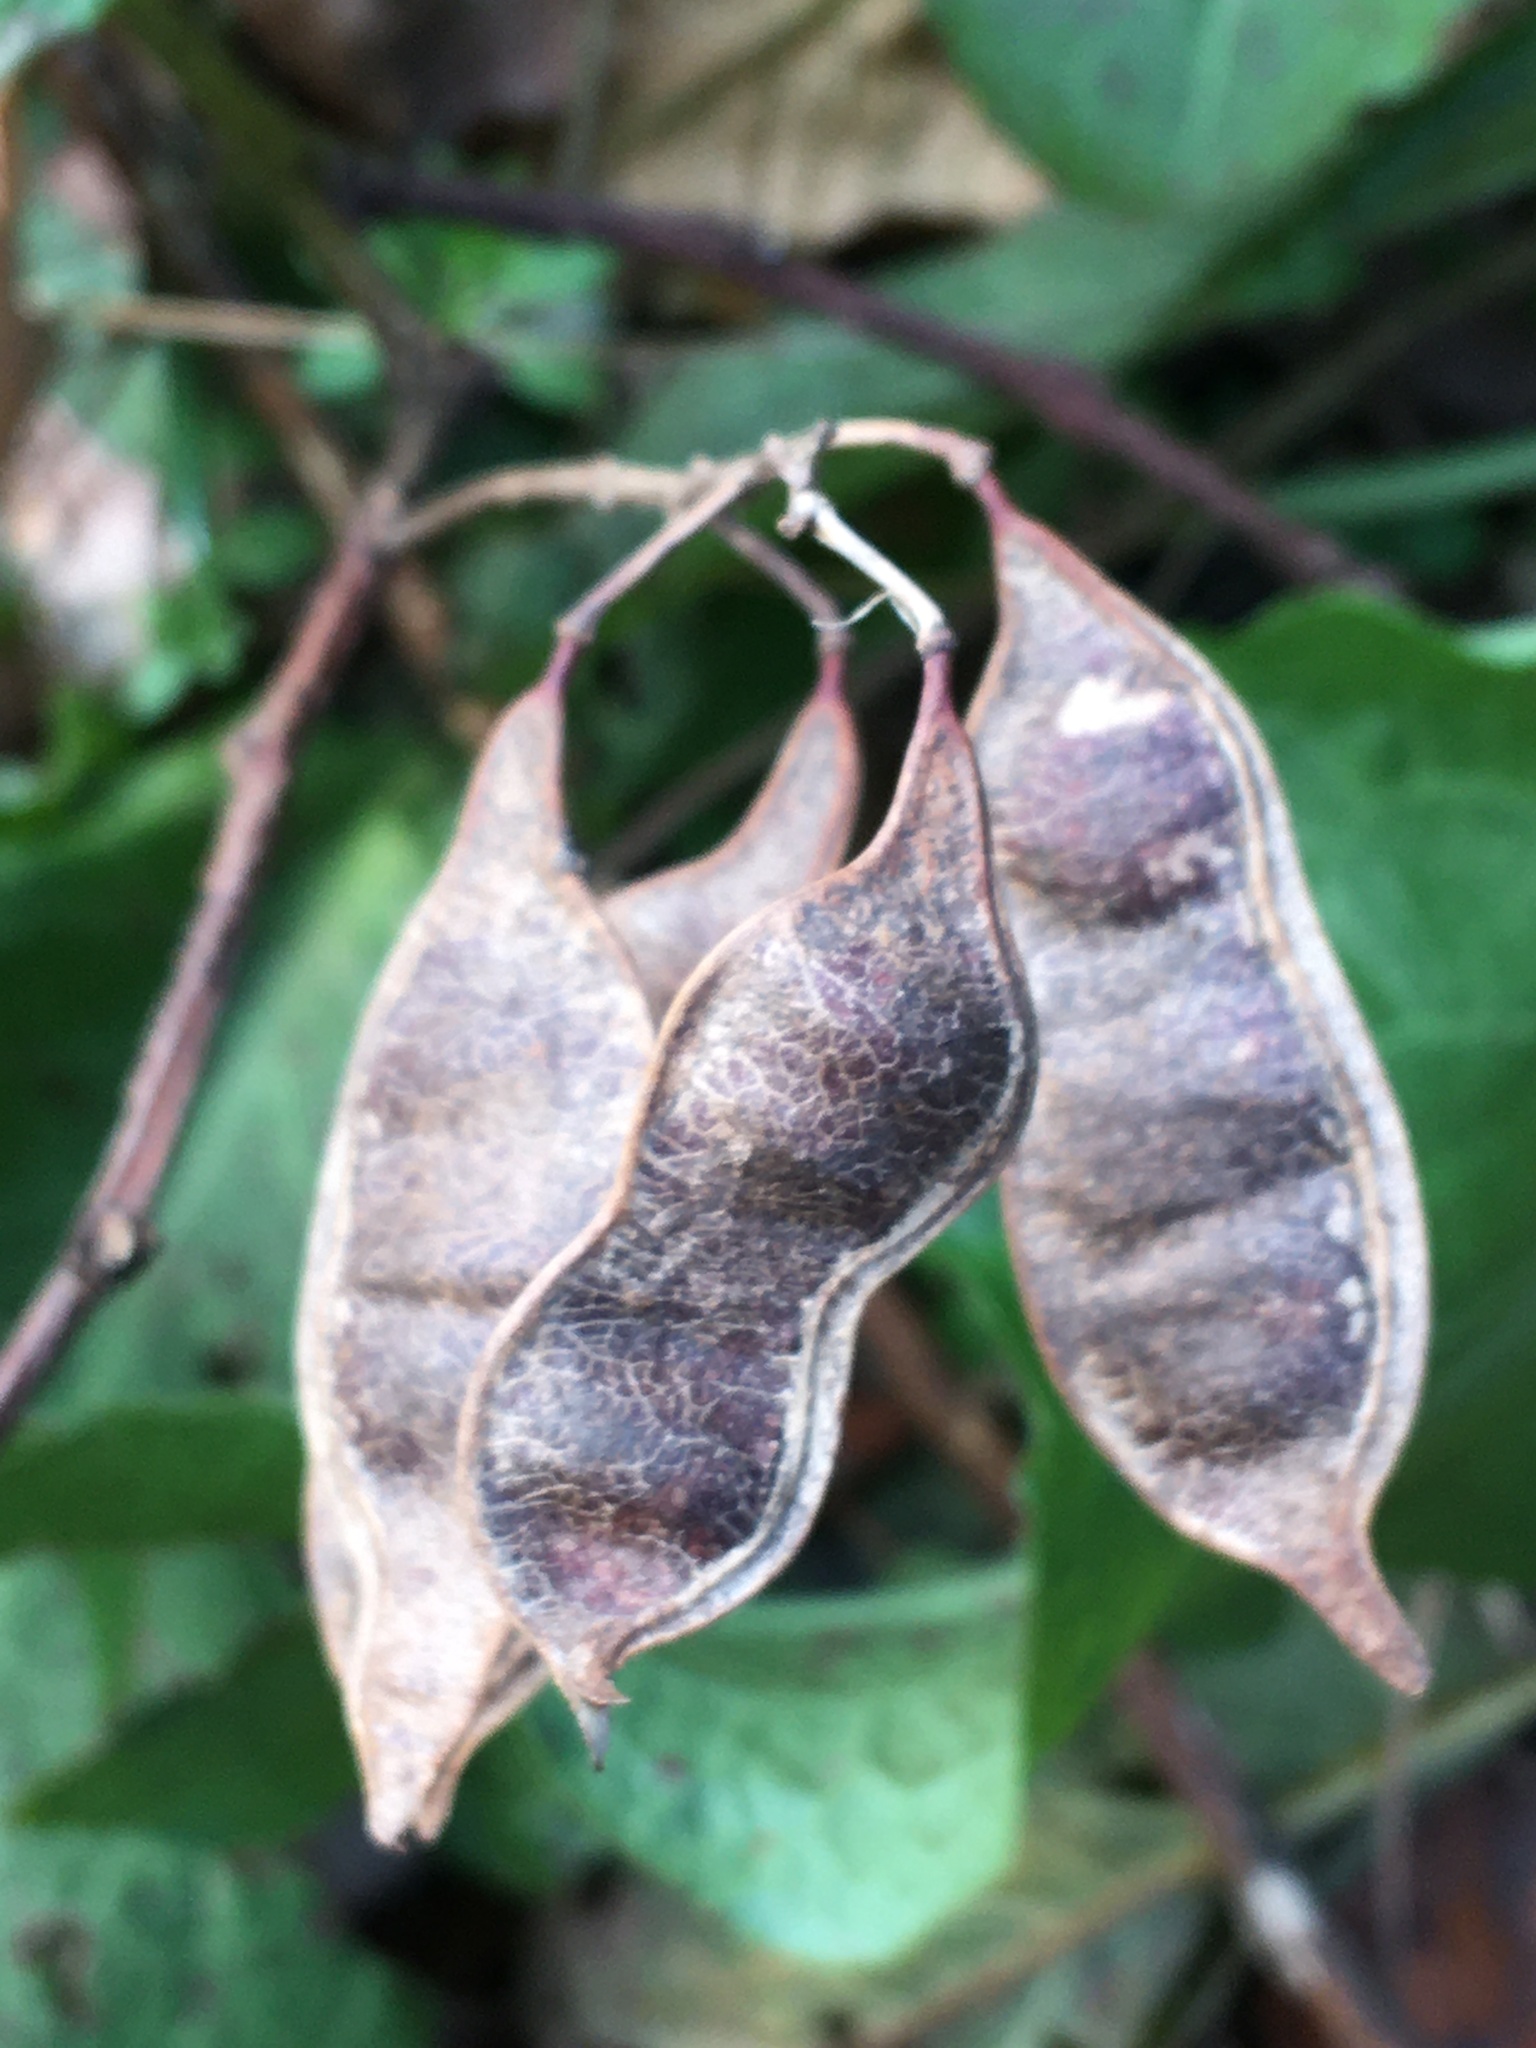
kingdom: Plantae
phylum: Tracheophyta
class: Magnoliopsida
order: Fabales
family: Fabaceae
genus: Robinia
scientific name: Robinia pseudoacacia
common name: Black locust
